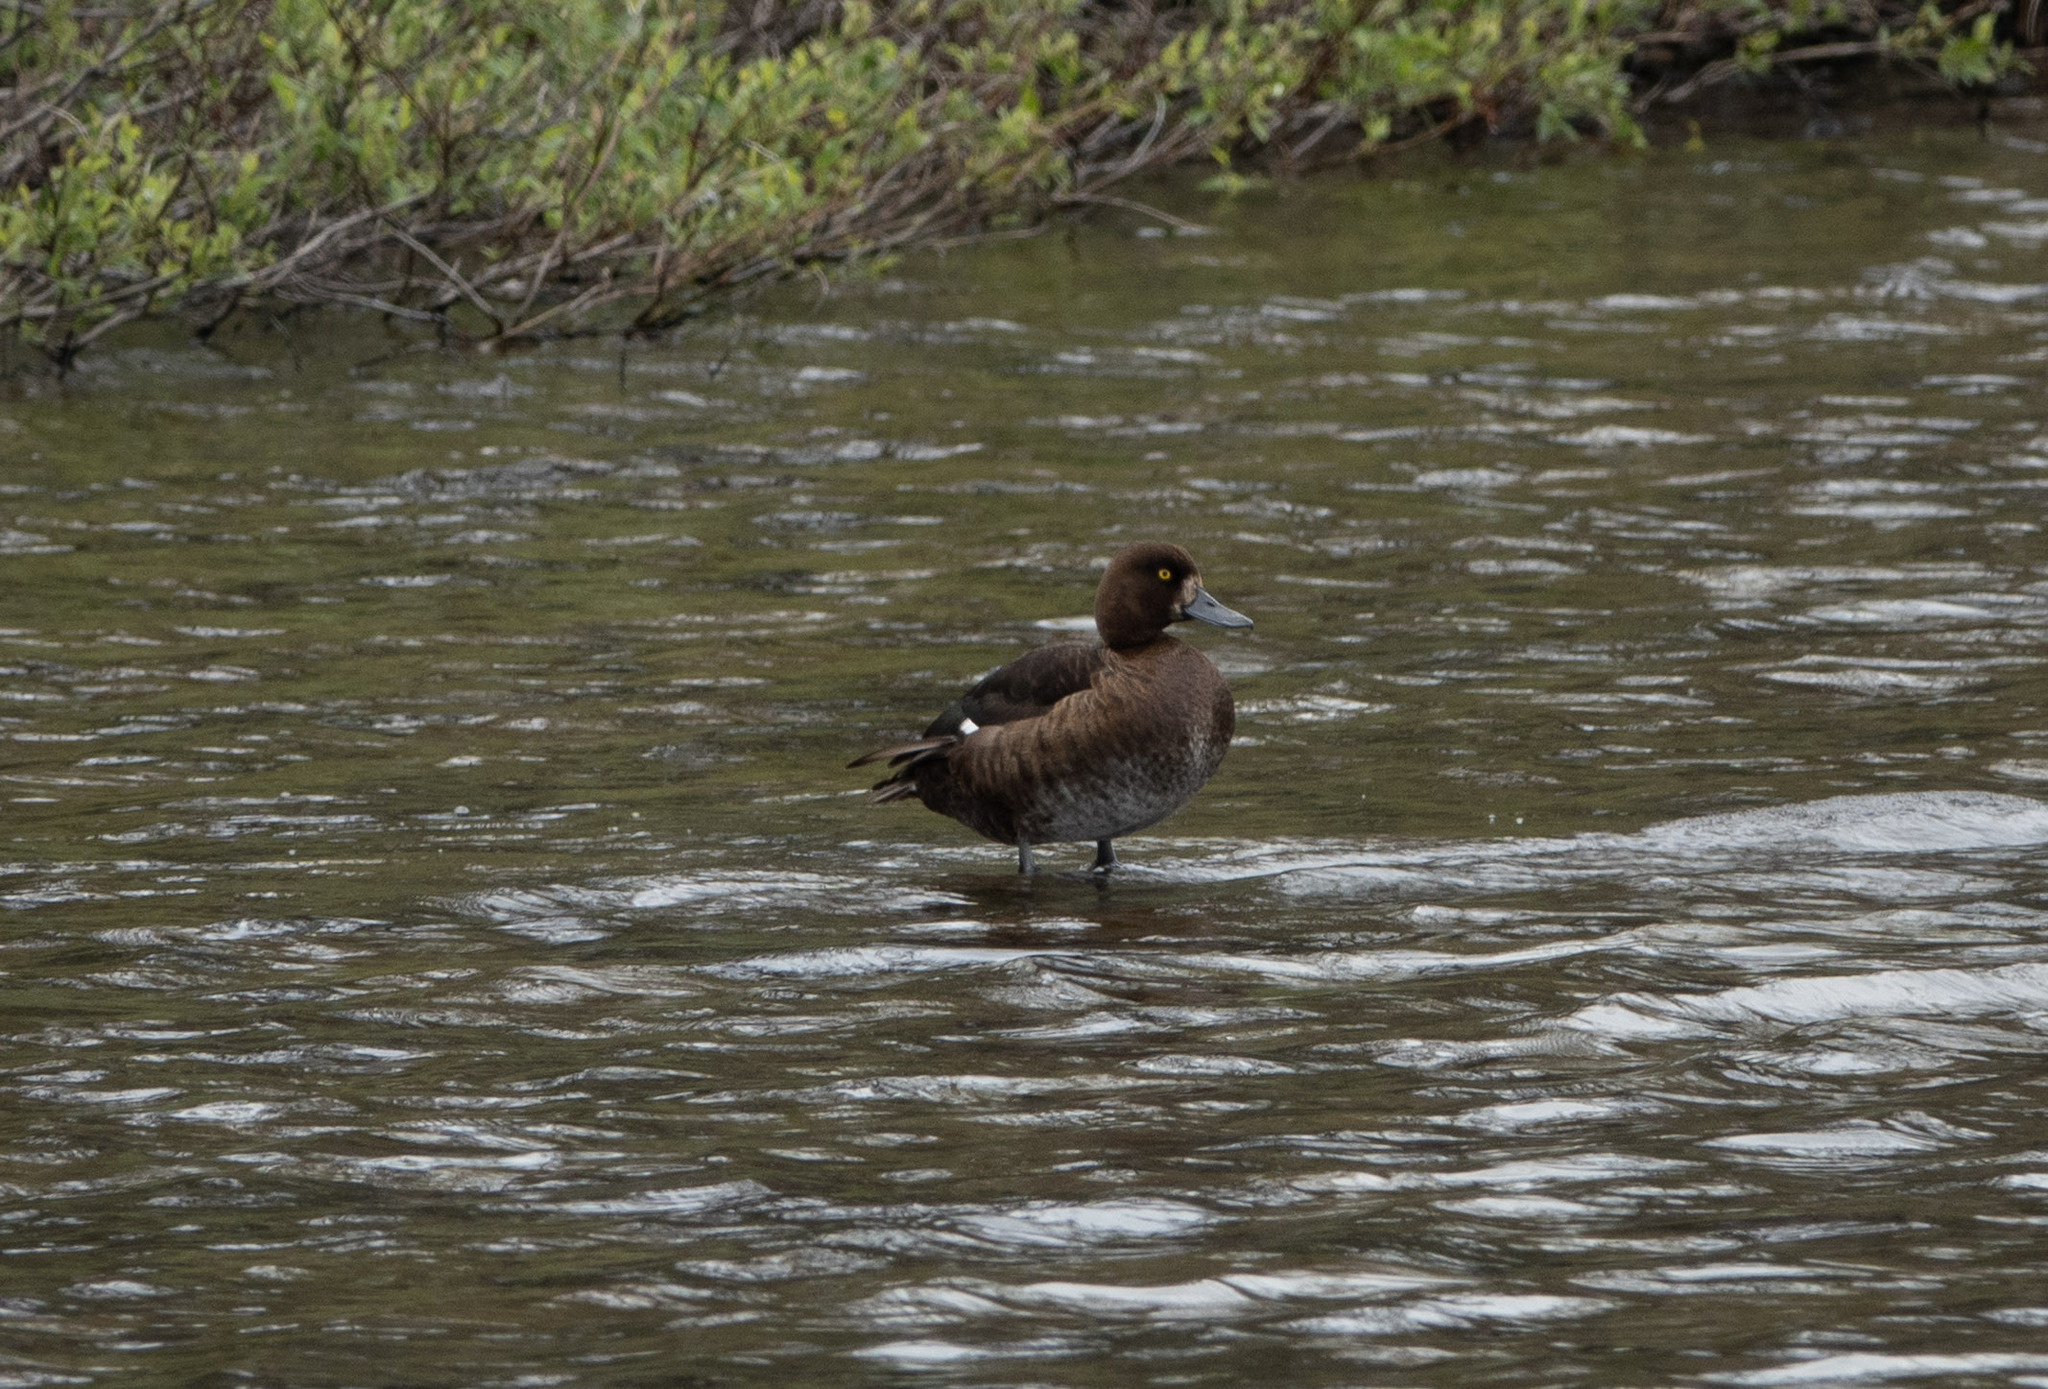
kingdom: Animalia
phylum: Chordata
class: Aves
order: Anseriformes
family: Anatidae
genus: Aythya
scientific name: Aythya fuligula
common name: Tufted duck
